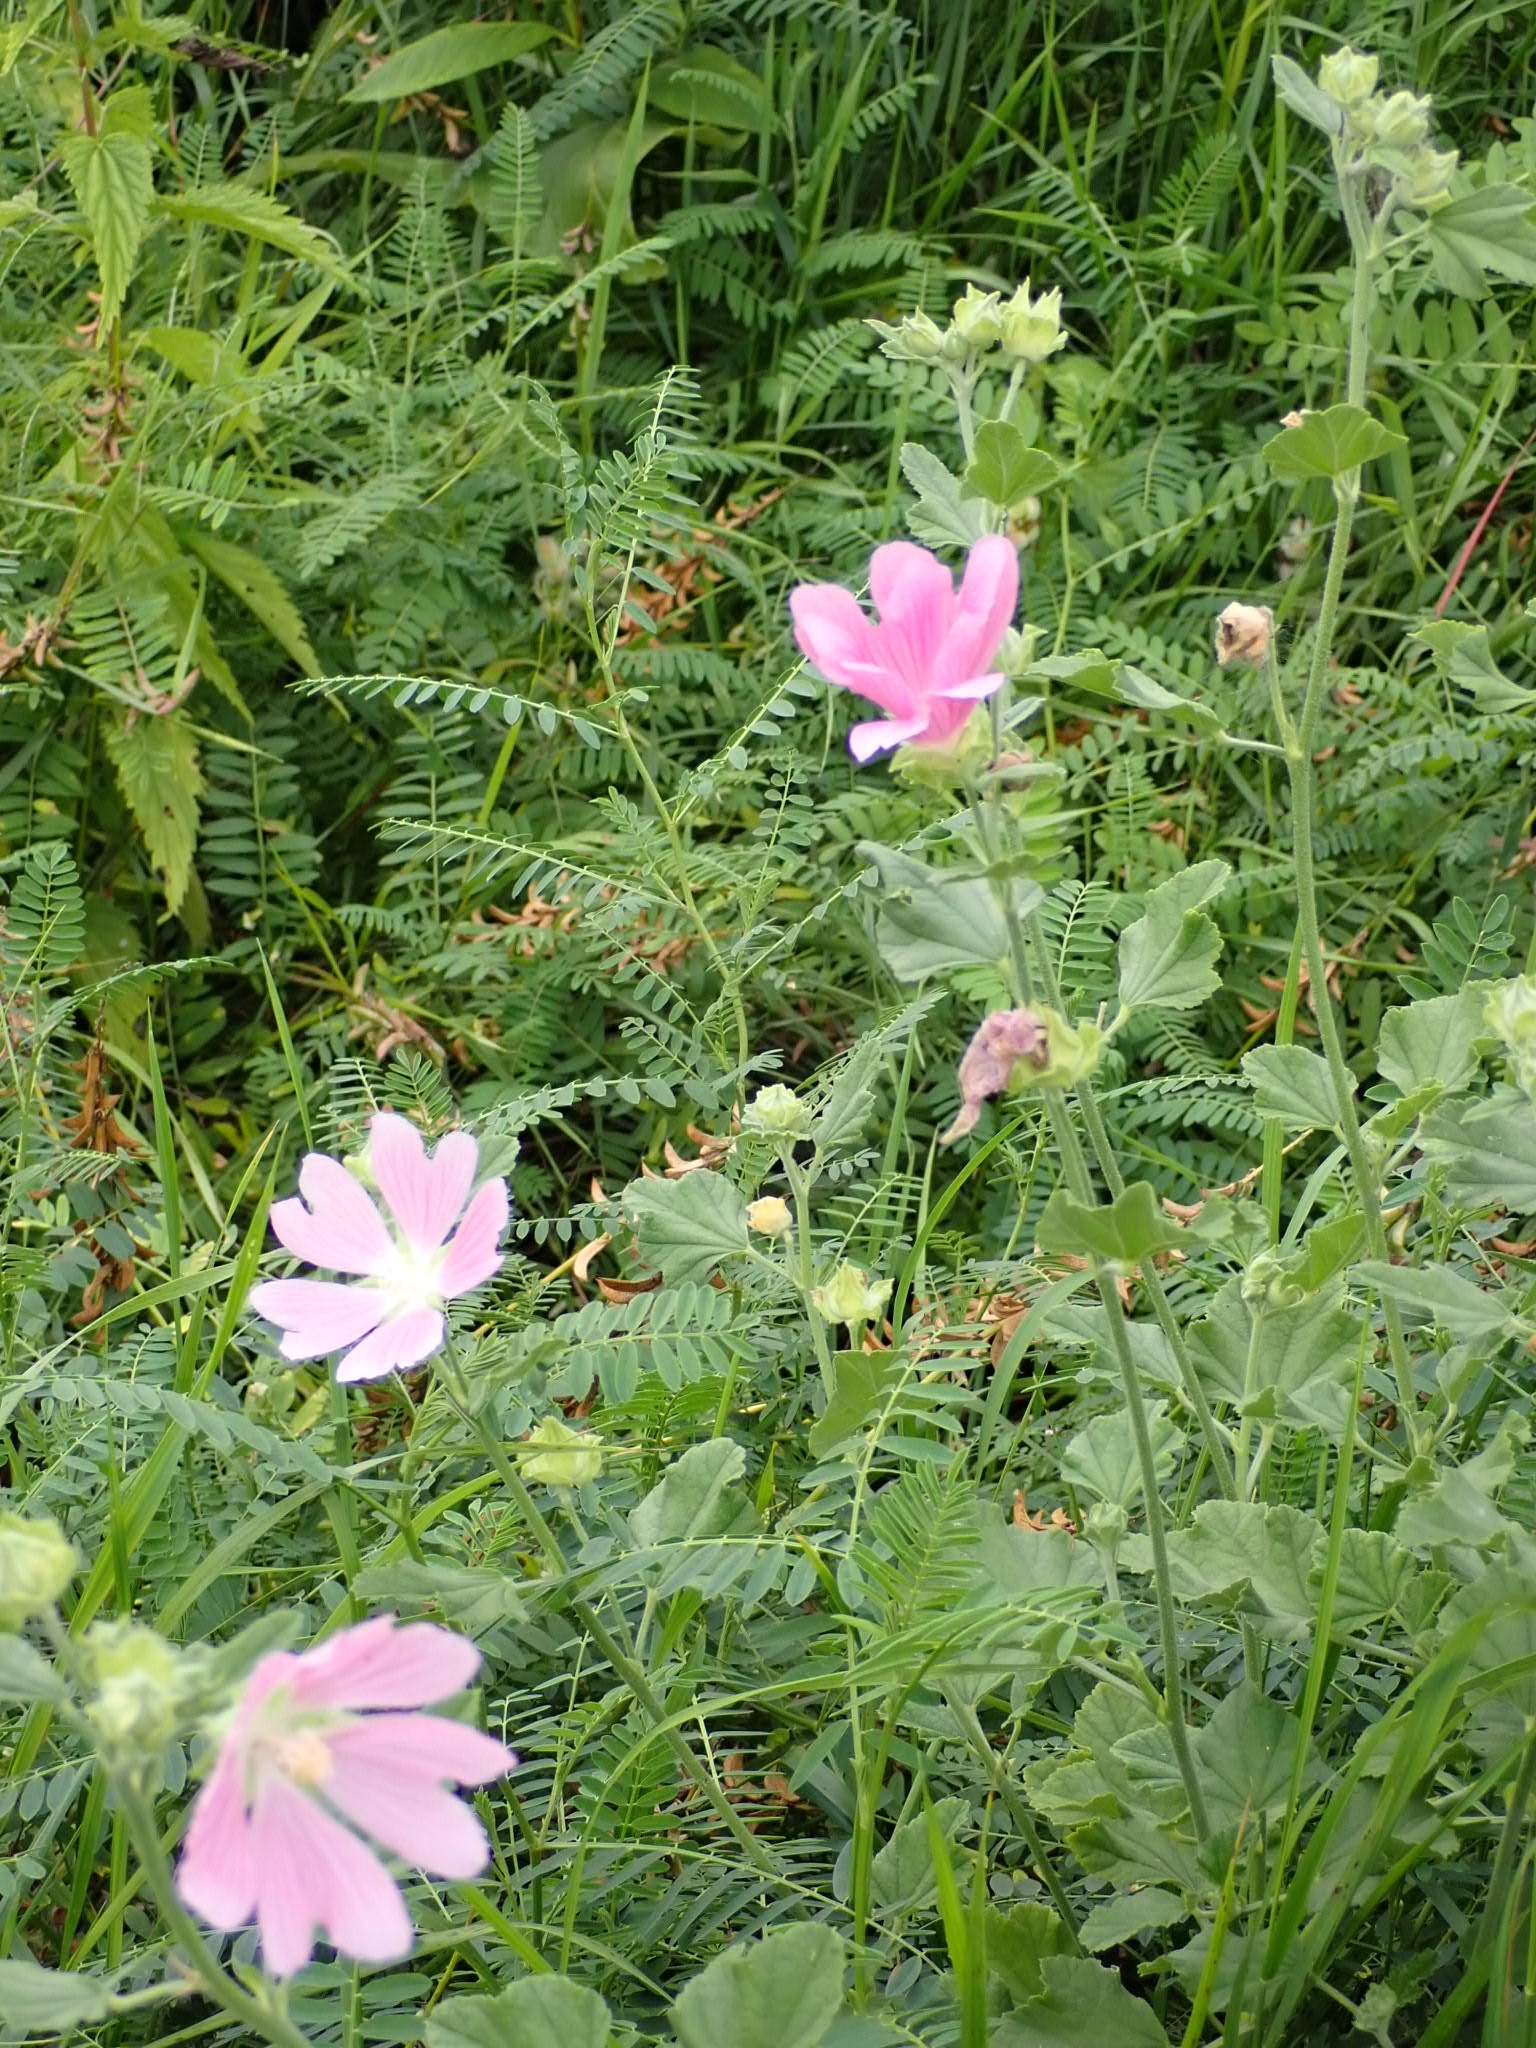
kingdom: Plantae
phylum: Tracheophyta
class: Magnoliopsida
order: Malvales
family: Malvaceae
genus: Malva
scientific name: Malva thuringiaca
